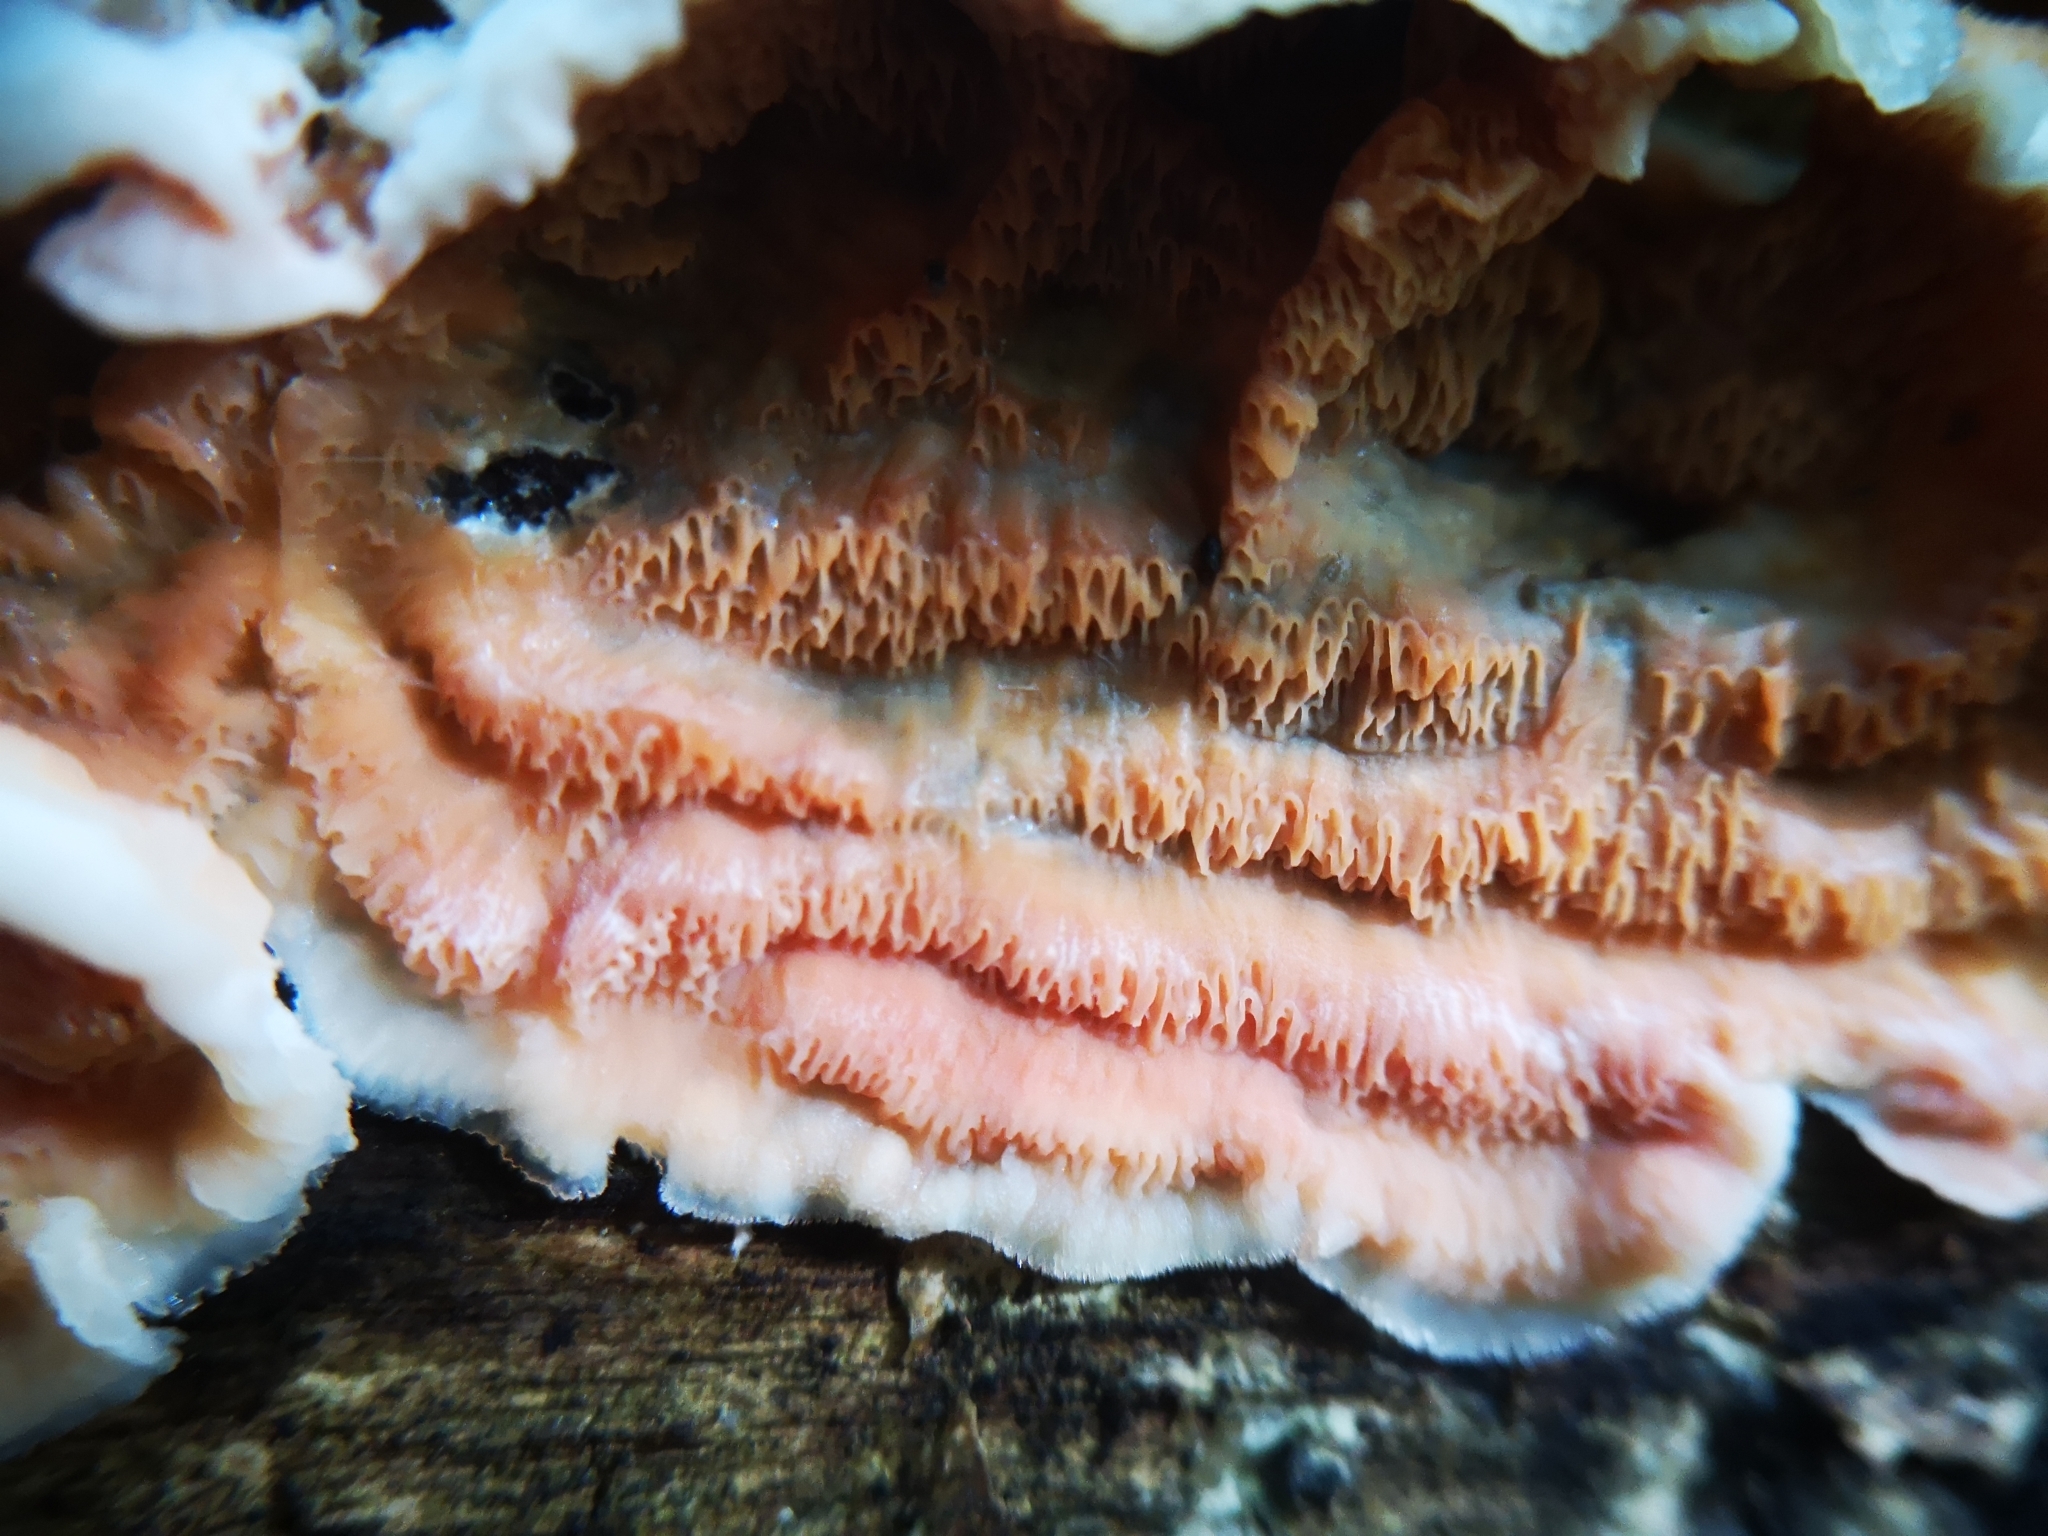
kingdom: Fungi
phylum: Basidiomycota
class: Agaricomycetes
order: Polyporales
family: Meruliaceae
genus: Phlebia
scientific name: Phlebia tremellosa
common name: Jelly rot
